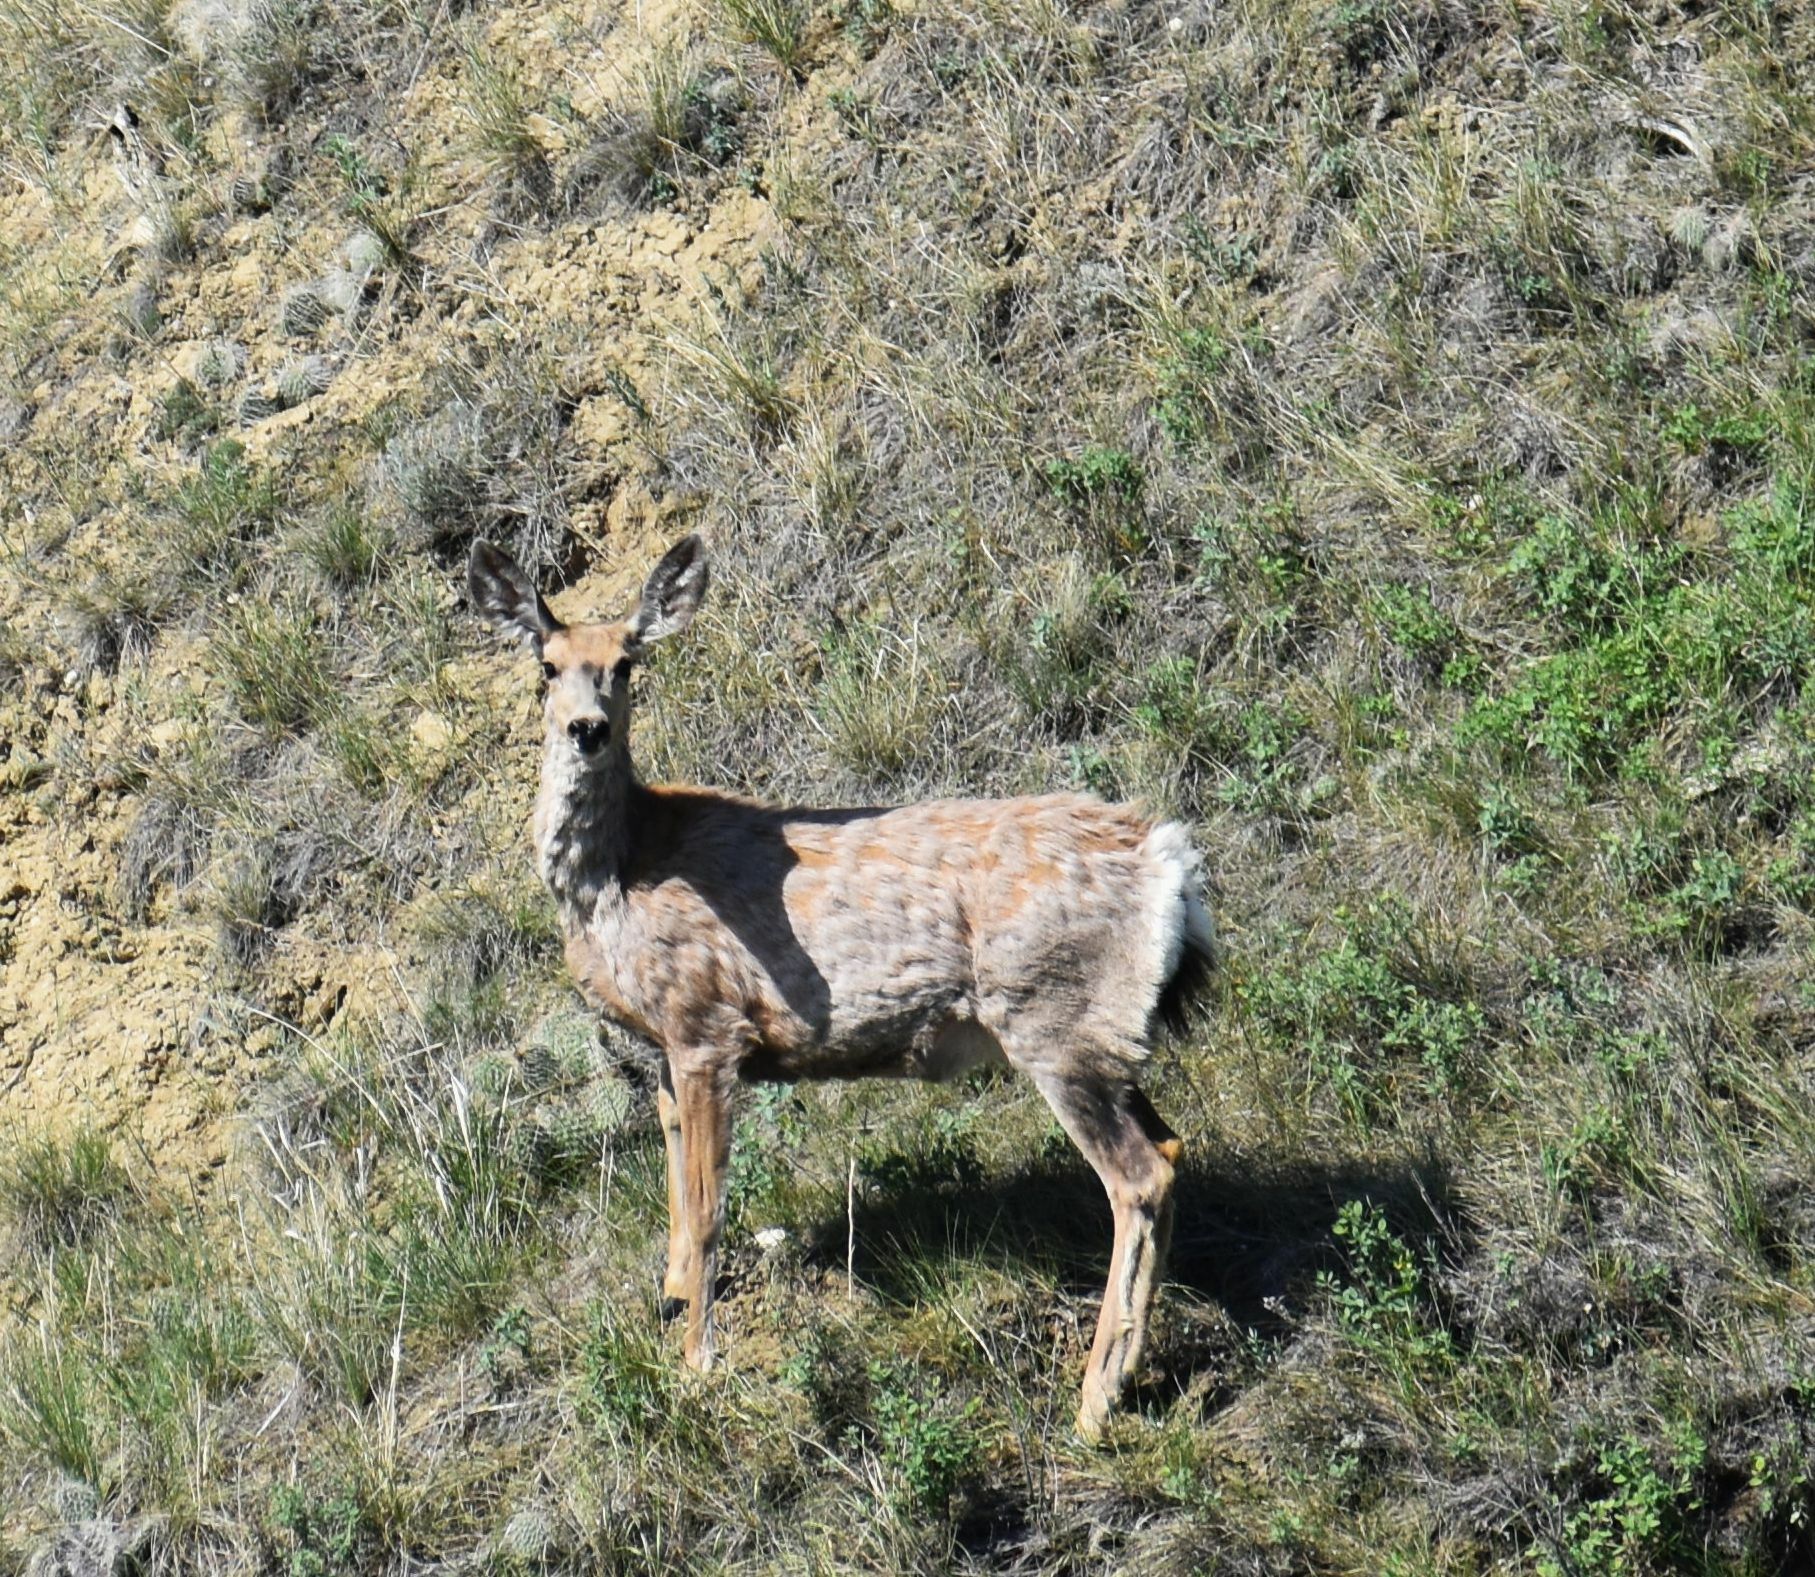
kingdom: Animalia
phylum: Chordata
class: Mammalia
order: Artiodactyla
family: Cervidae
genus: Odocoileus
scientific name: Odocoileus hemionus
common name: Mule deer
